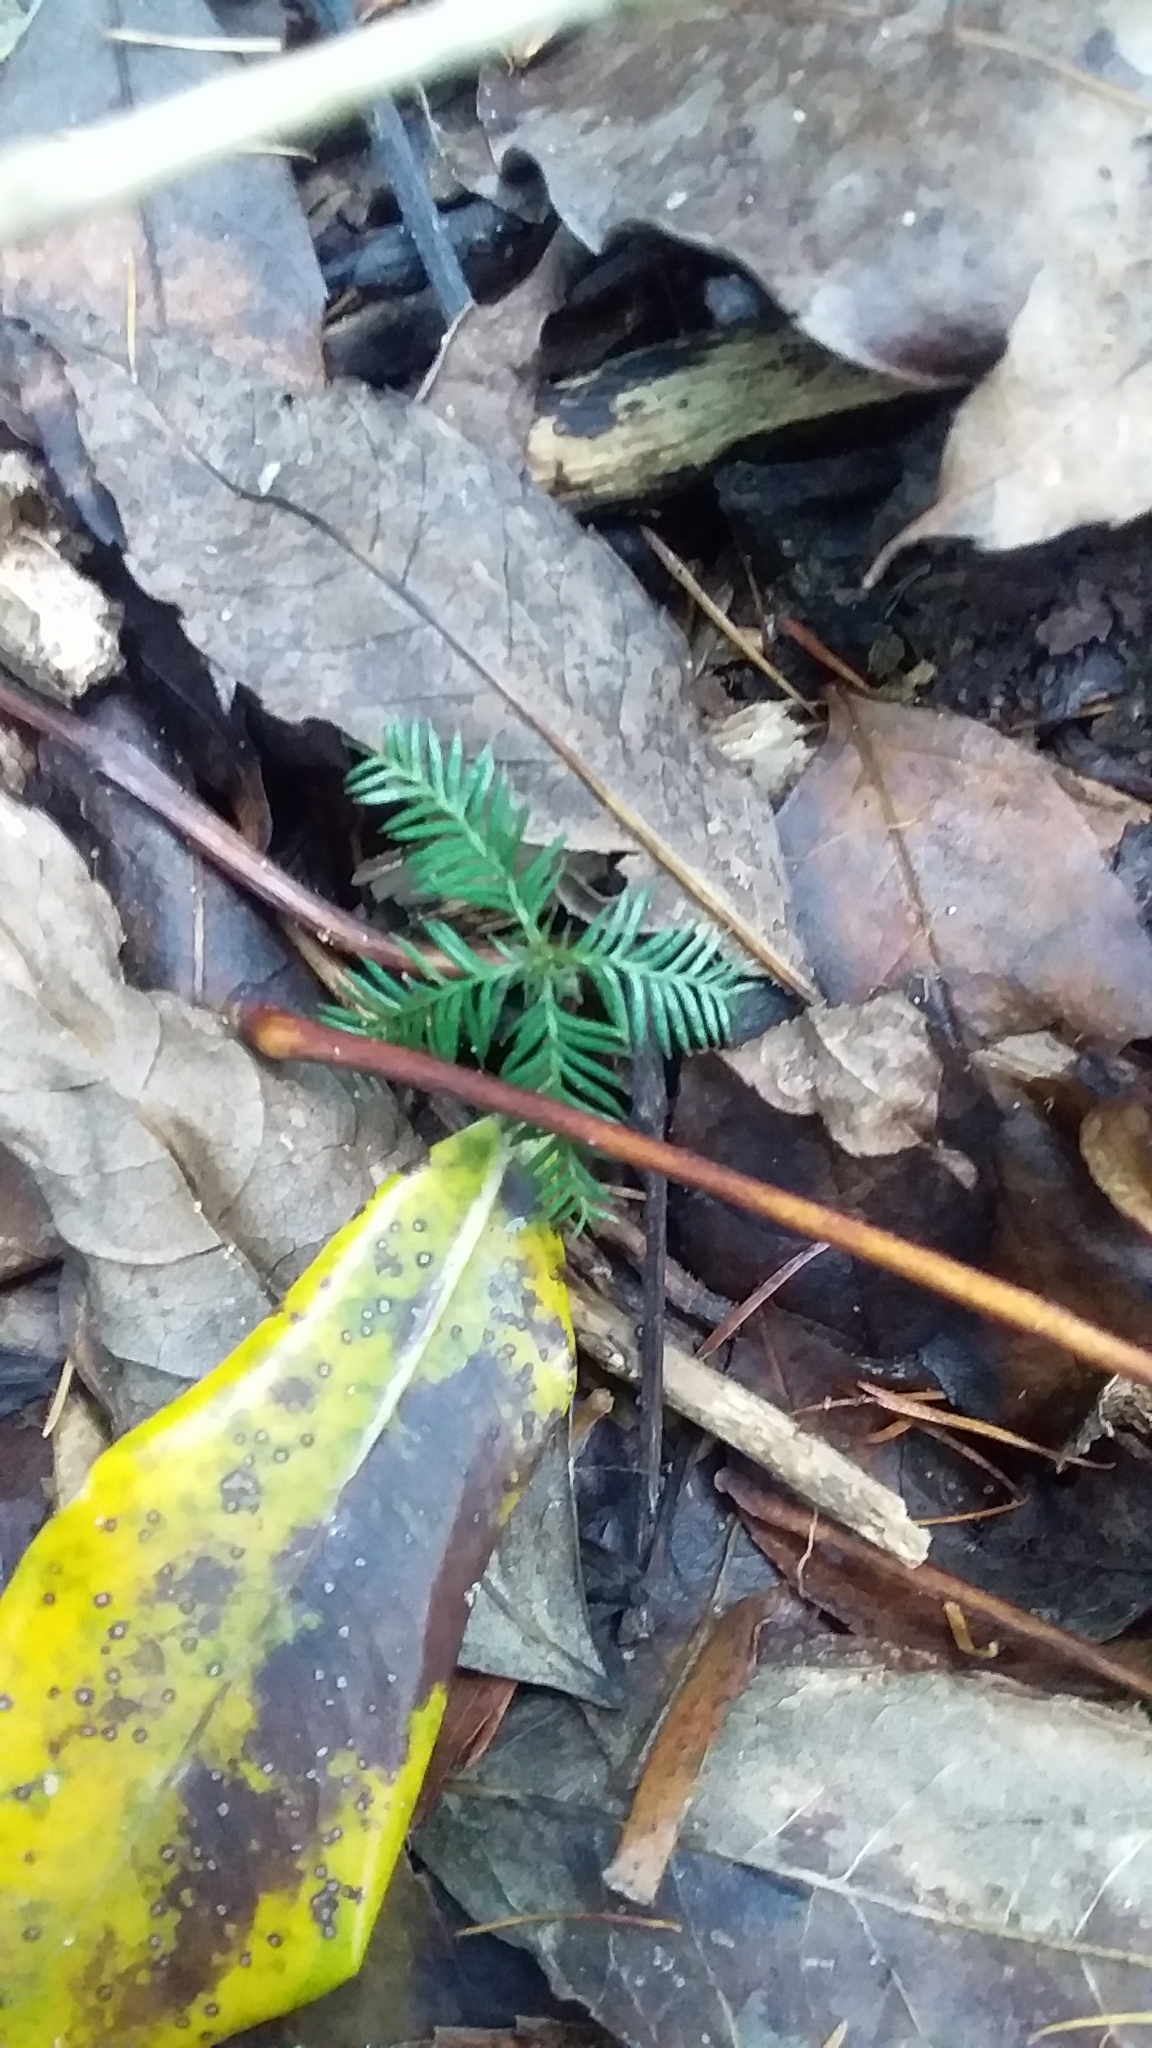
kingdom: Plantae
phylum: Tracheophyta
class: Pinopsida
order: Pinales
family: Podocarpaceae
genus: Dacrycarpus
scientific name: Dacrycarpus dacrydioides
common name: White pine
